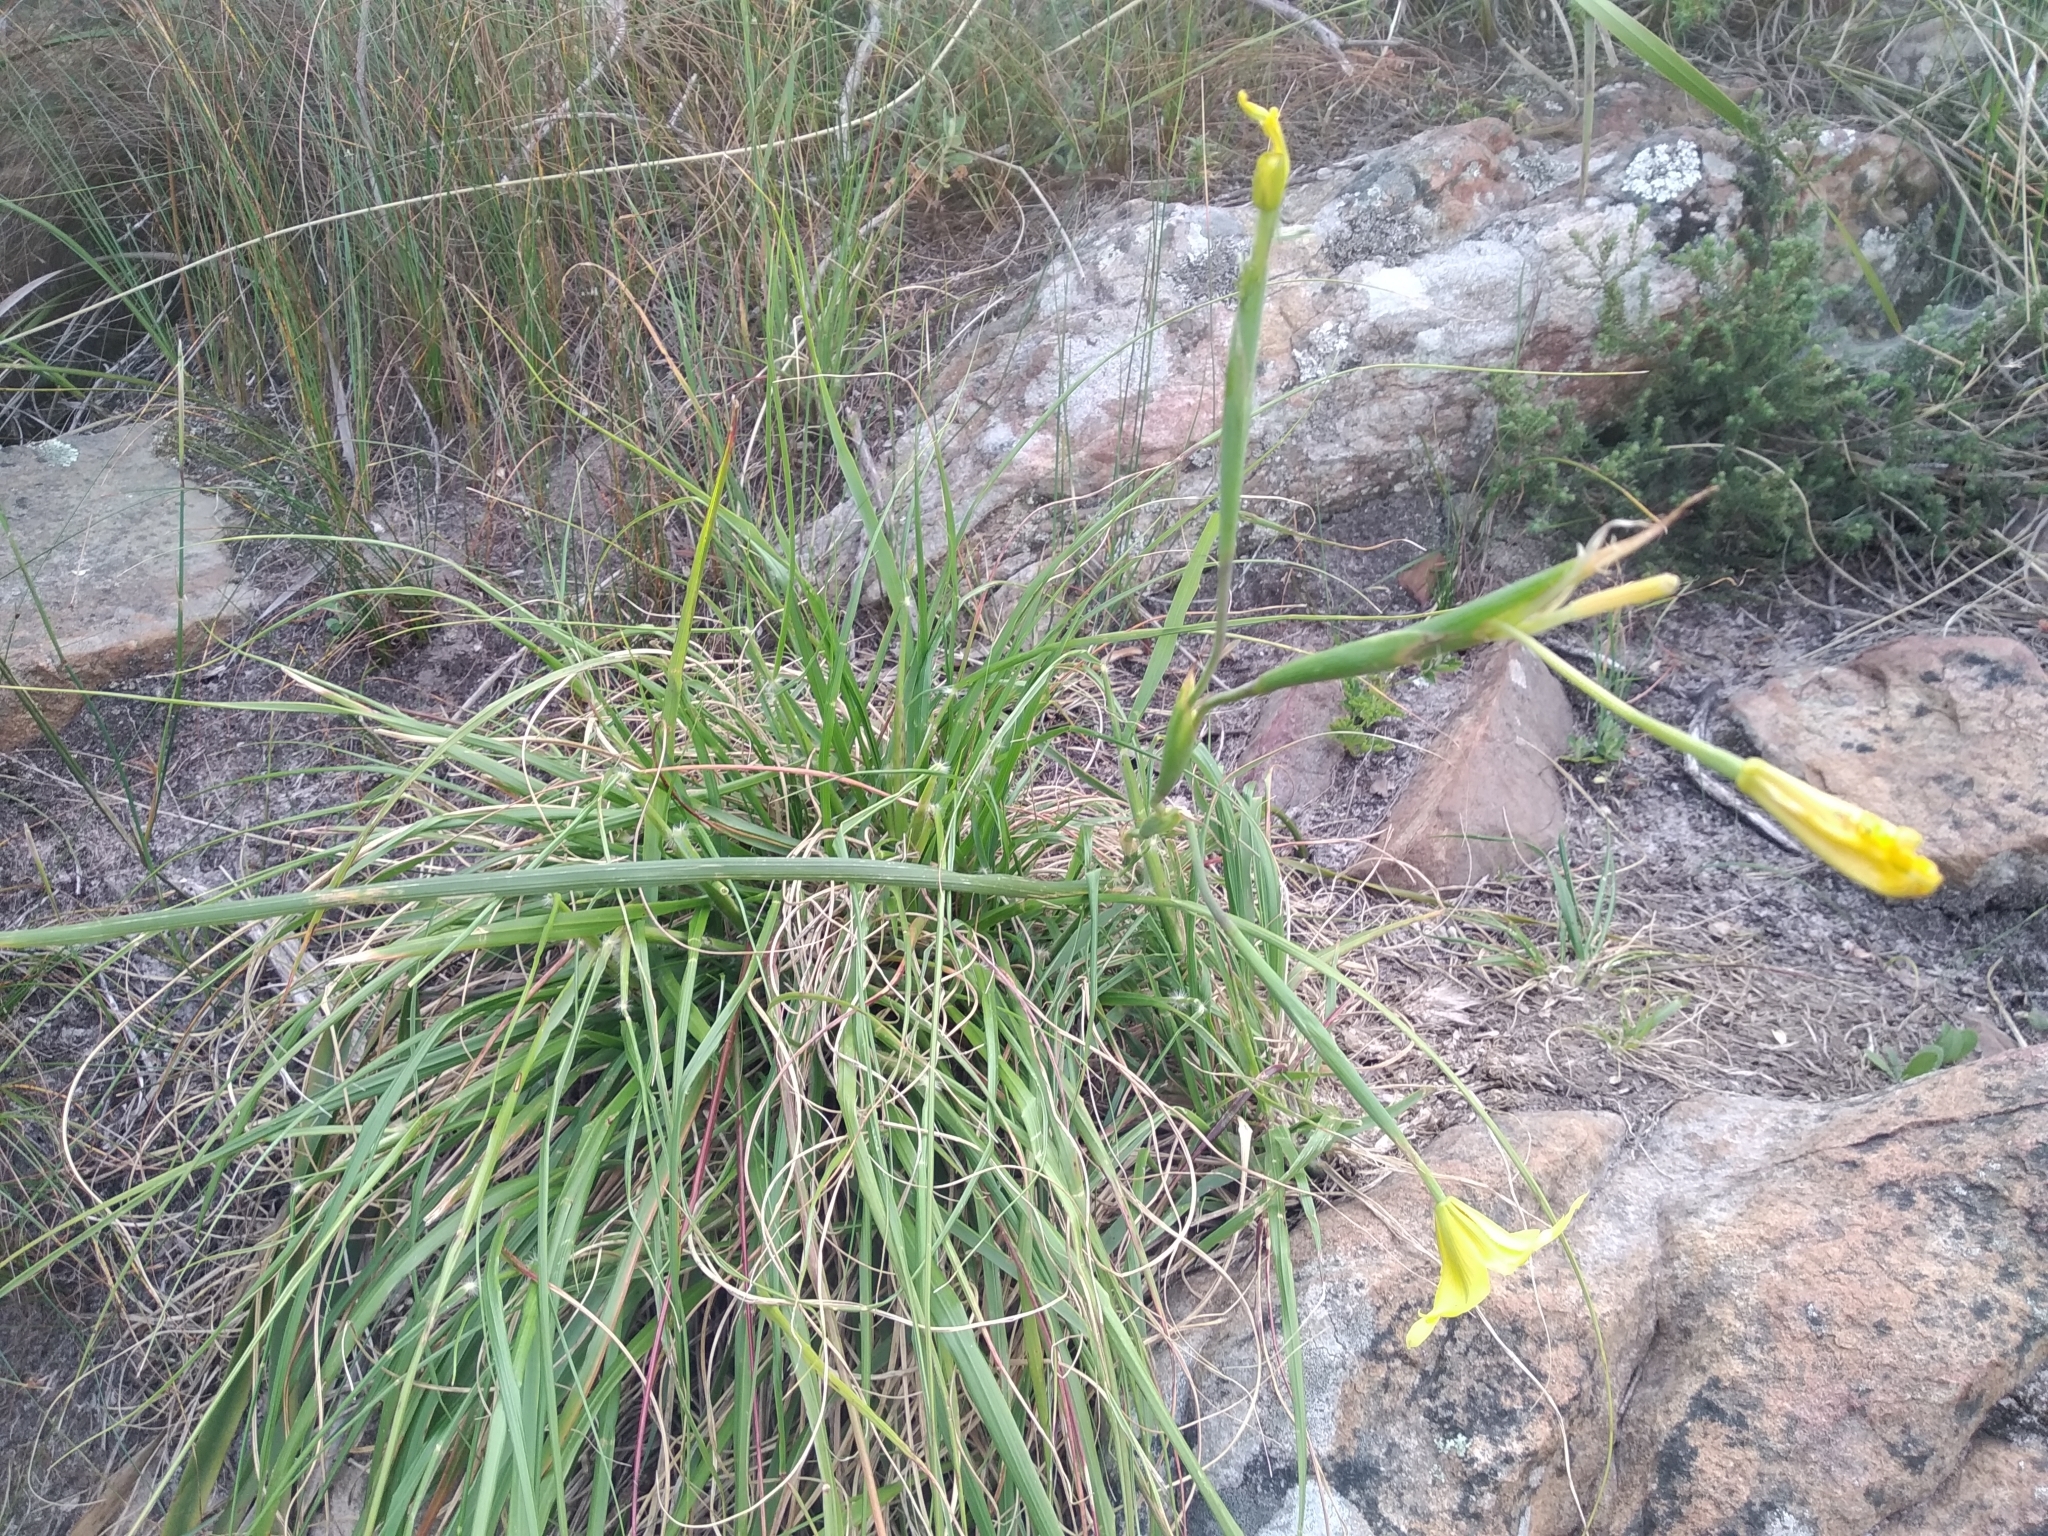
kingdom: Plantae
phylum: Tracheophyta
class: Liliopsida
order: Asparagales
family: Iridaceae
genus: Moraea
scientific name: Moraea ochroleuca
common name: Red tulp
